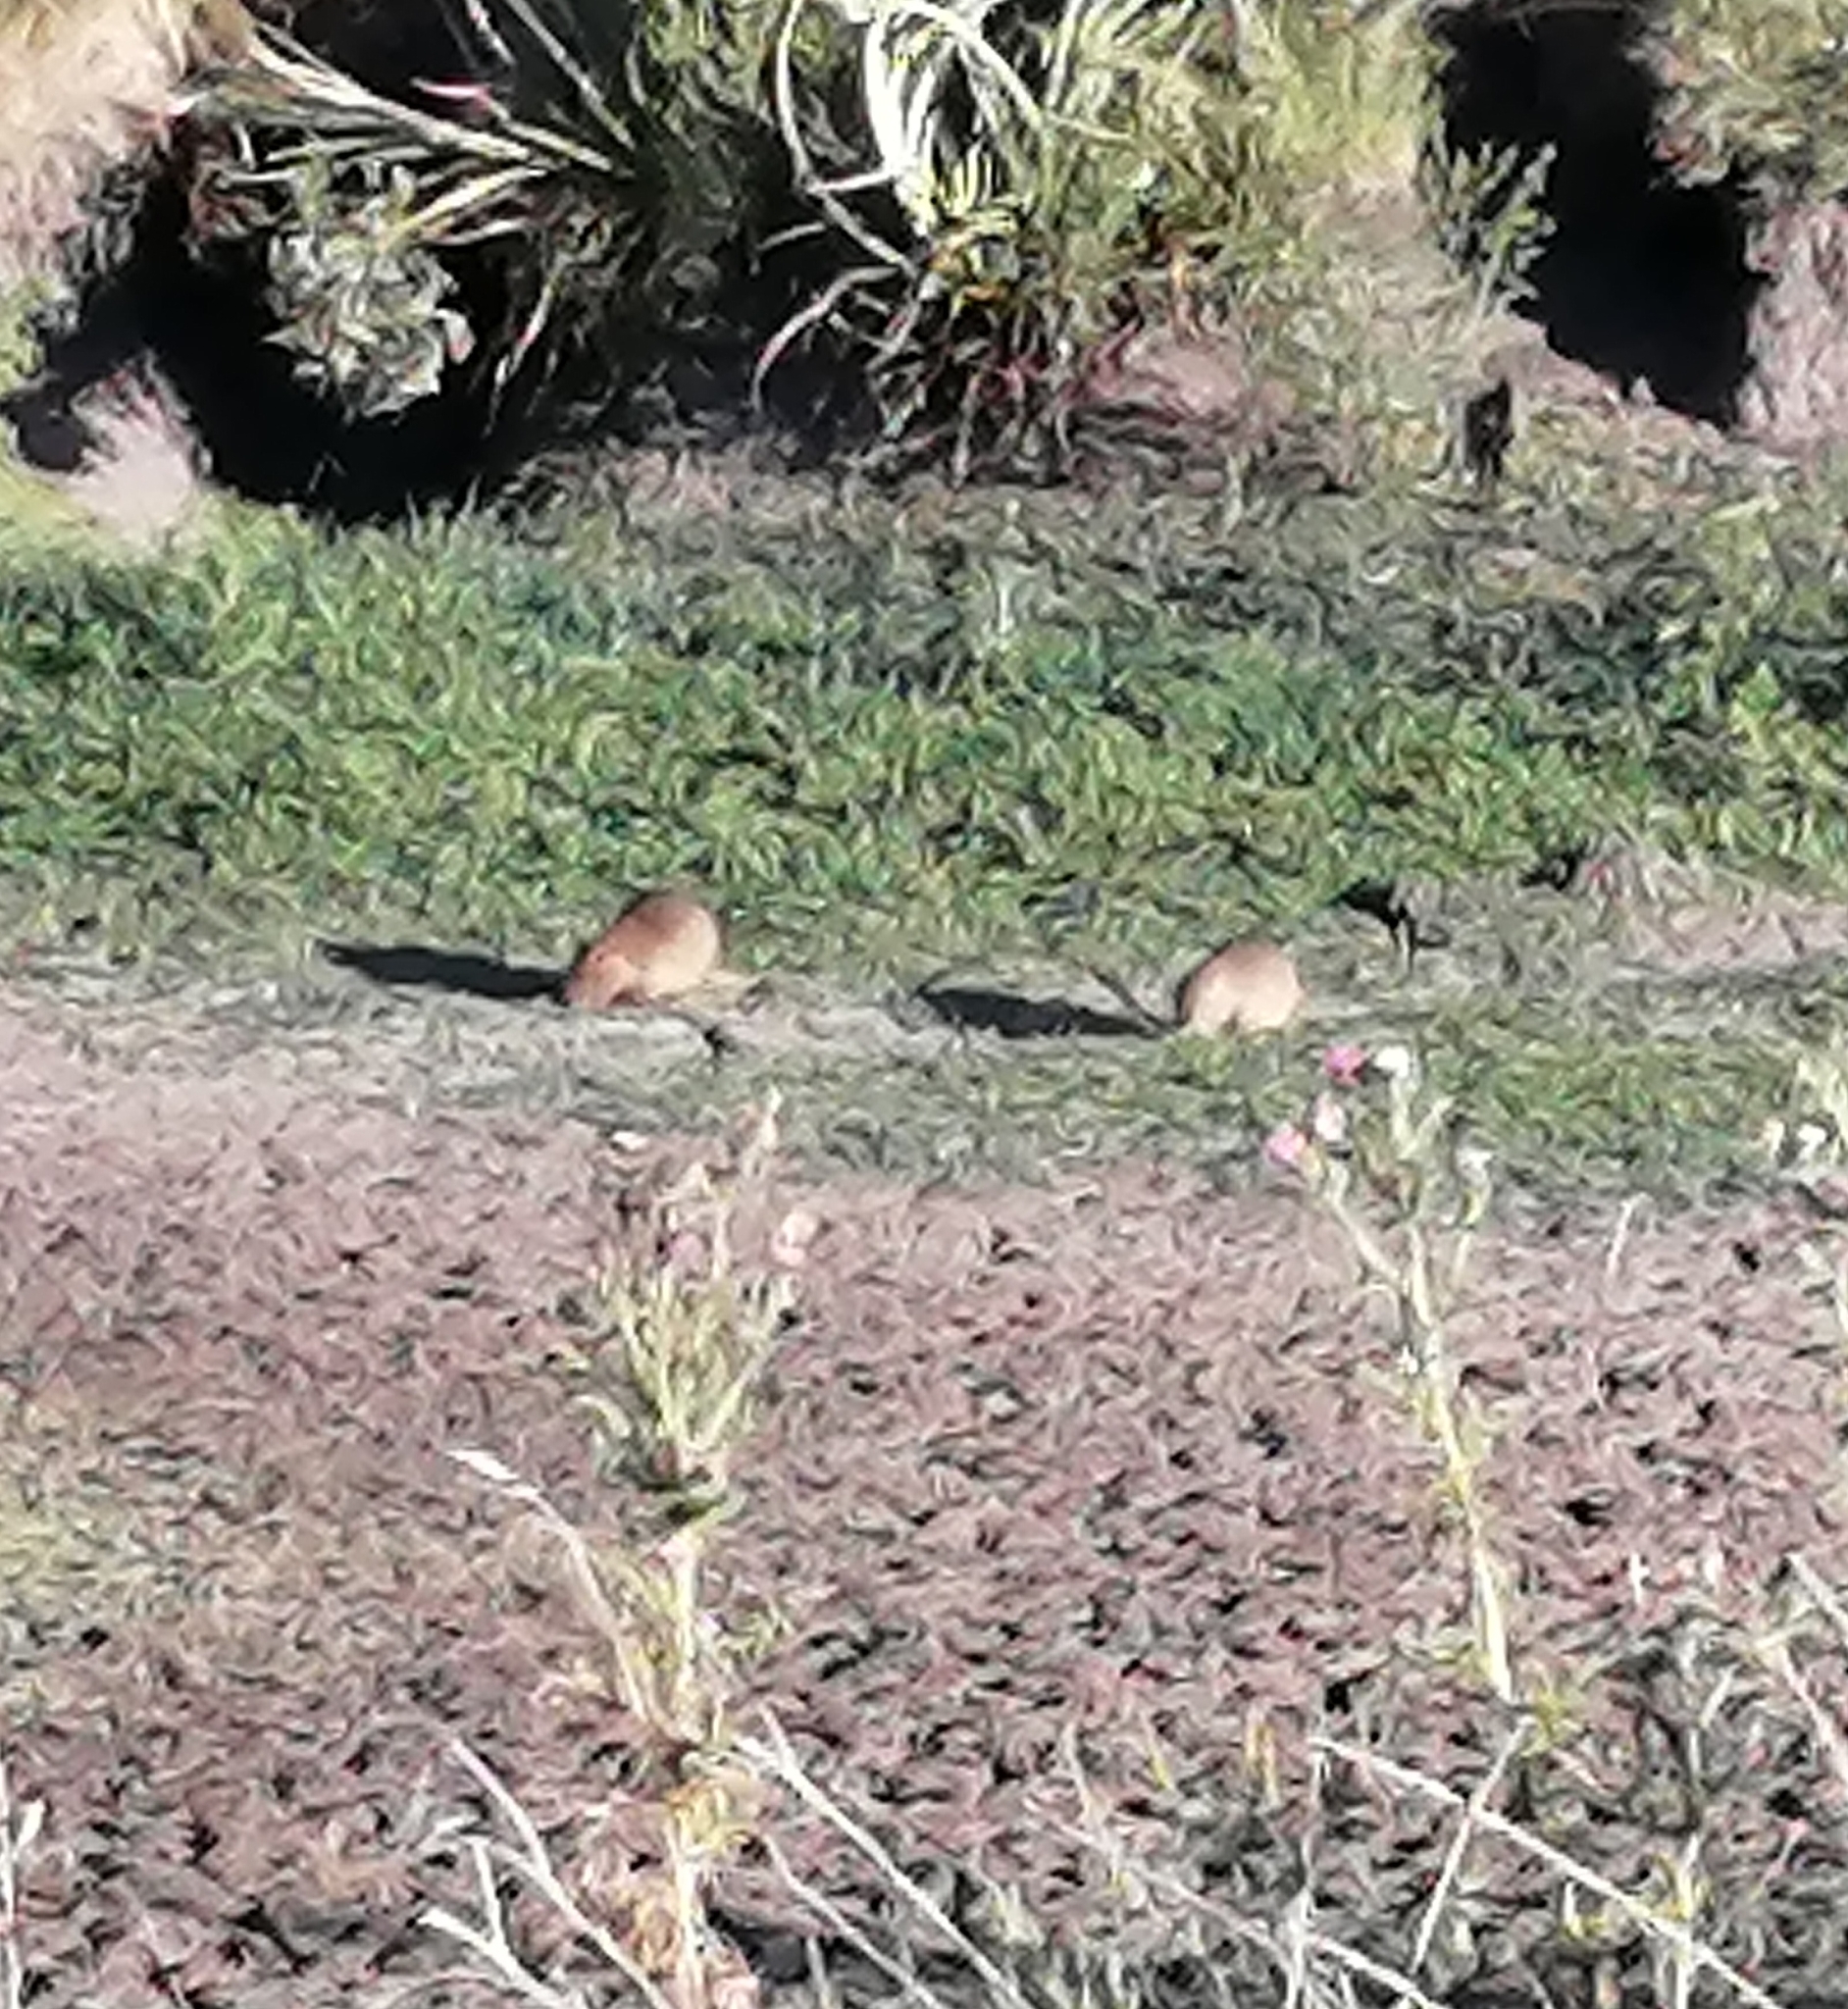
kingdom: Animalia
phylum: Chordata
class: Mammalia
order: Rodentia
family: Myocastoridae
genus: Myocastor
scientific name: Myocastor coypus
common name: Coypu
